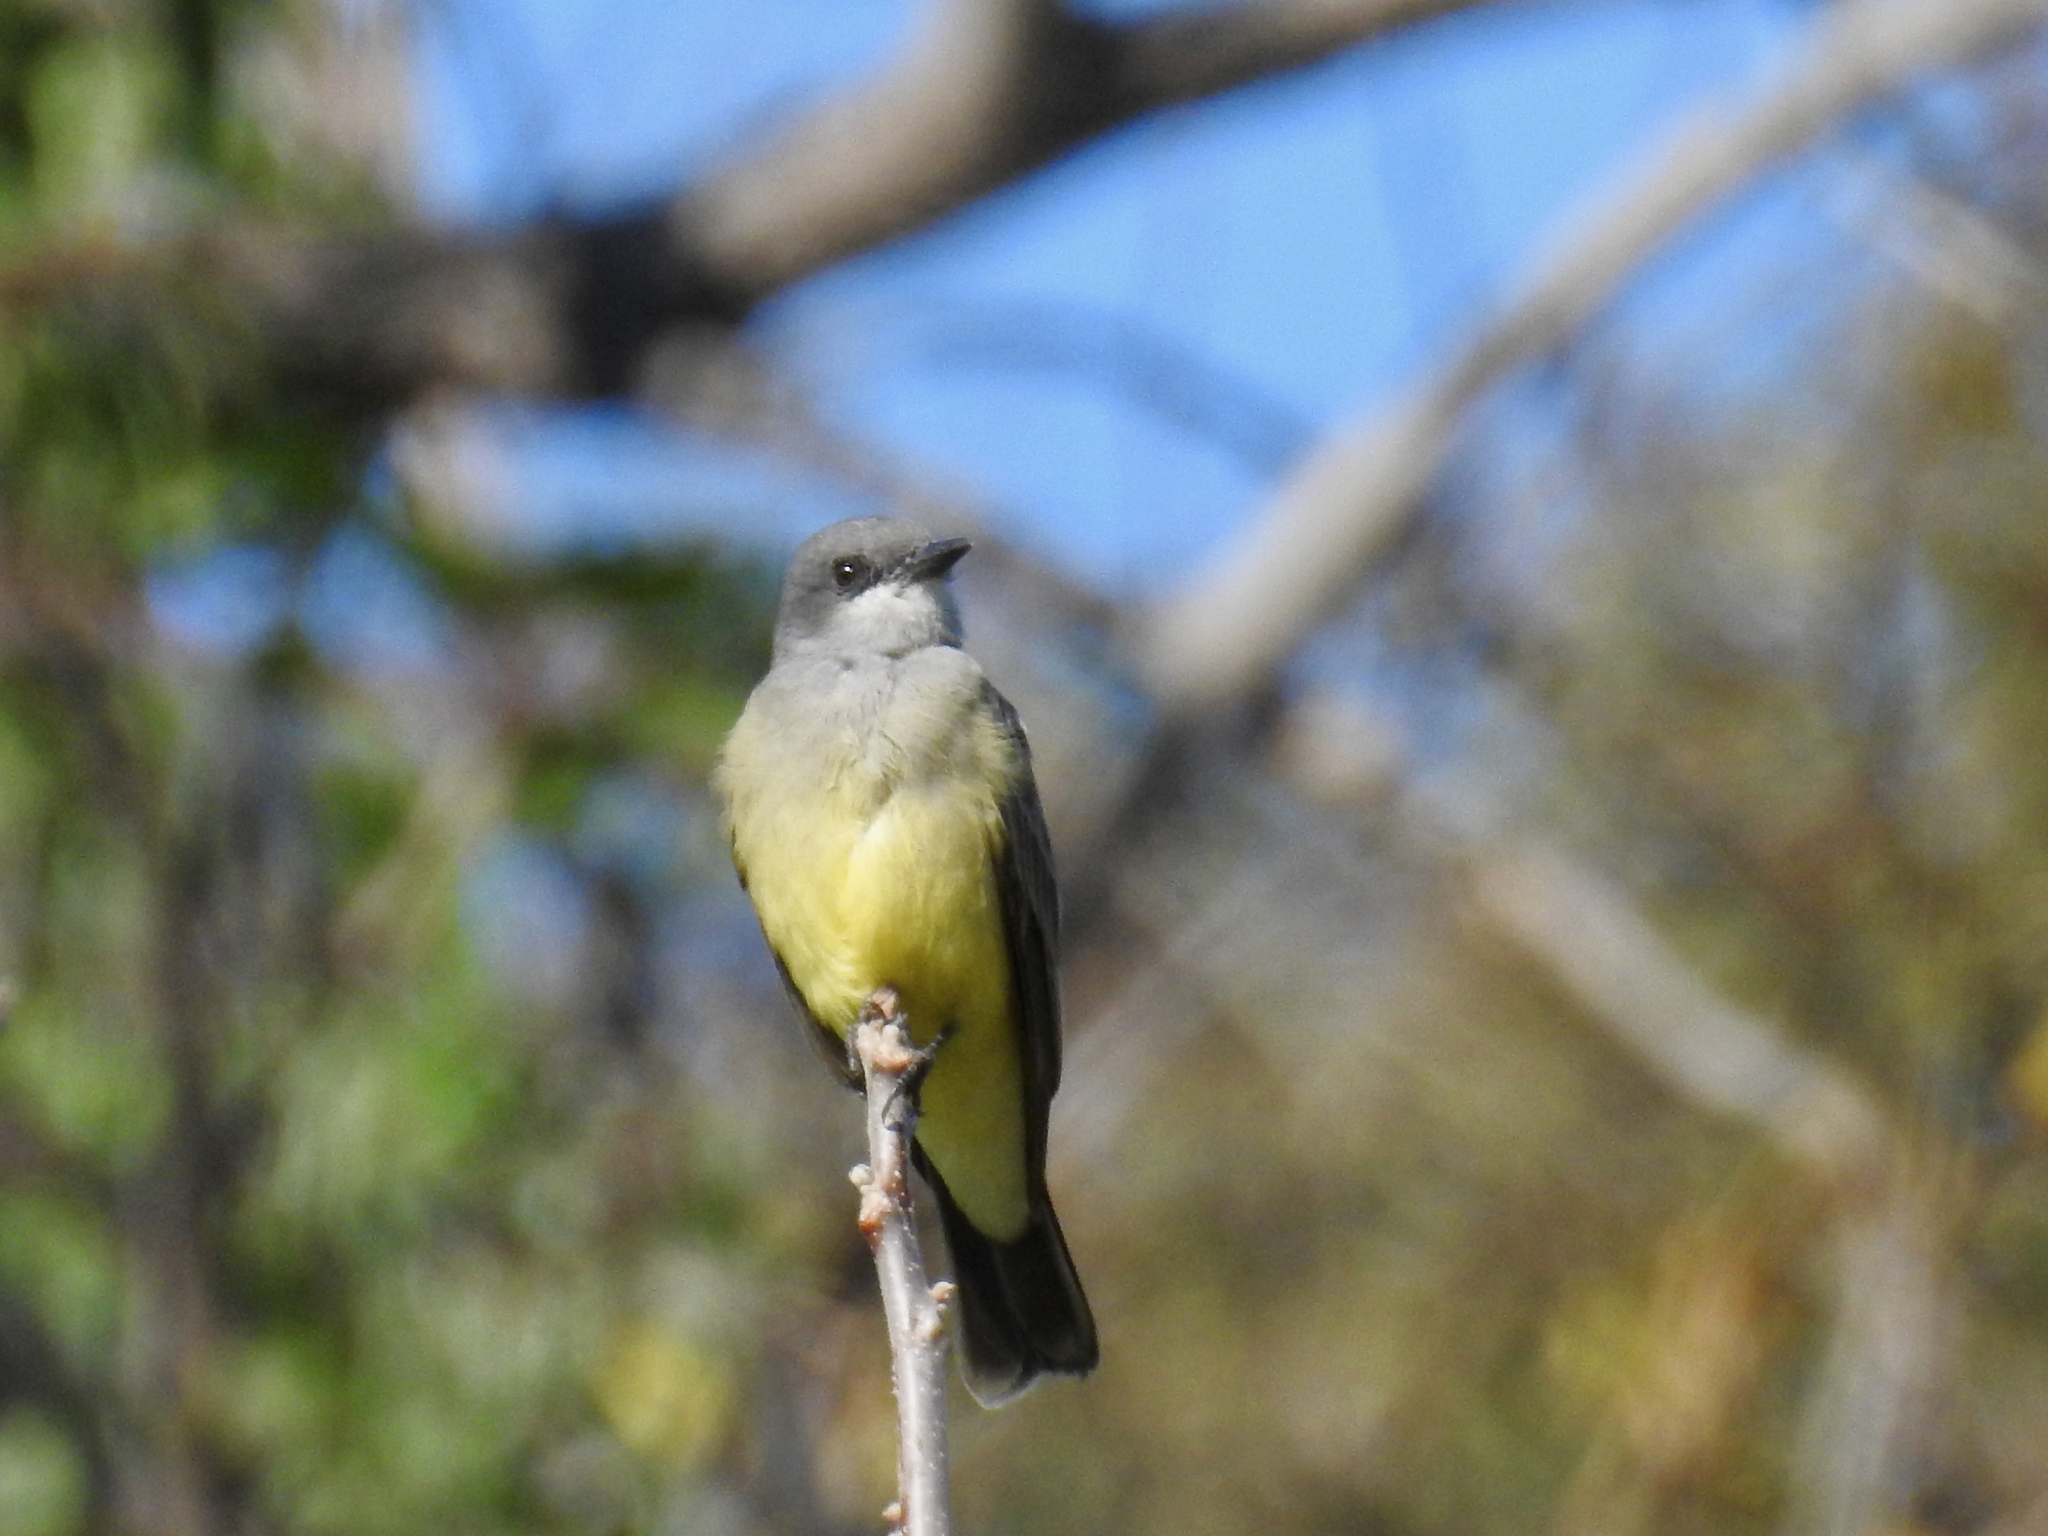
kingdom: Animalia
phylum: Chordata
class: Aves
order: Passeriformes
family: Tyrannidae
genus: Tyrannus
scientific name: Tyrannus vociferans
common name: Cassin's kingbird
